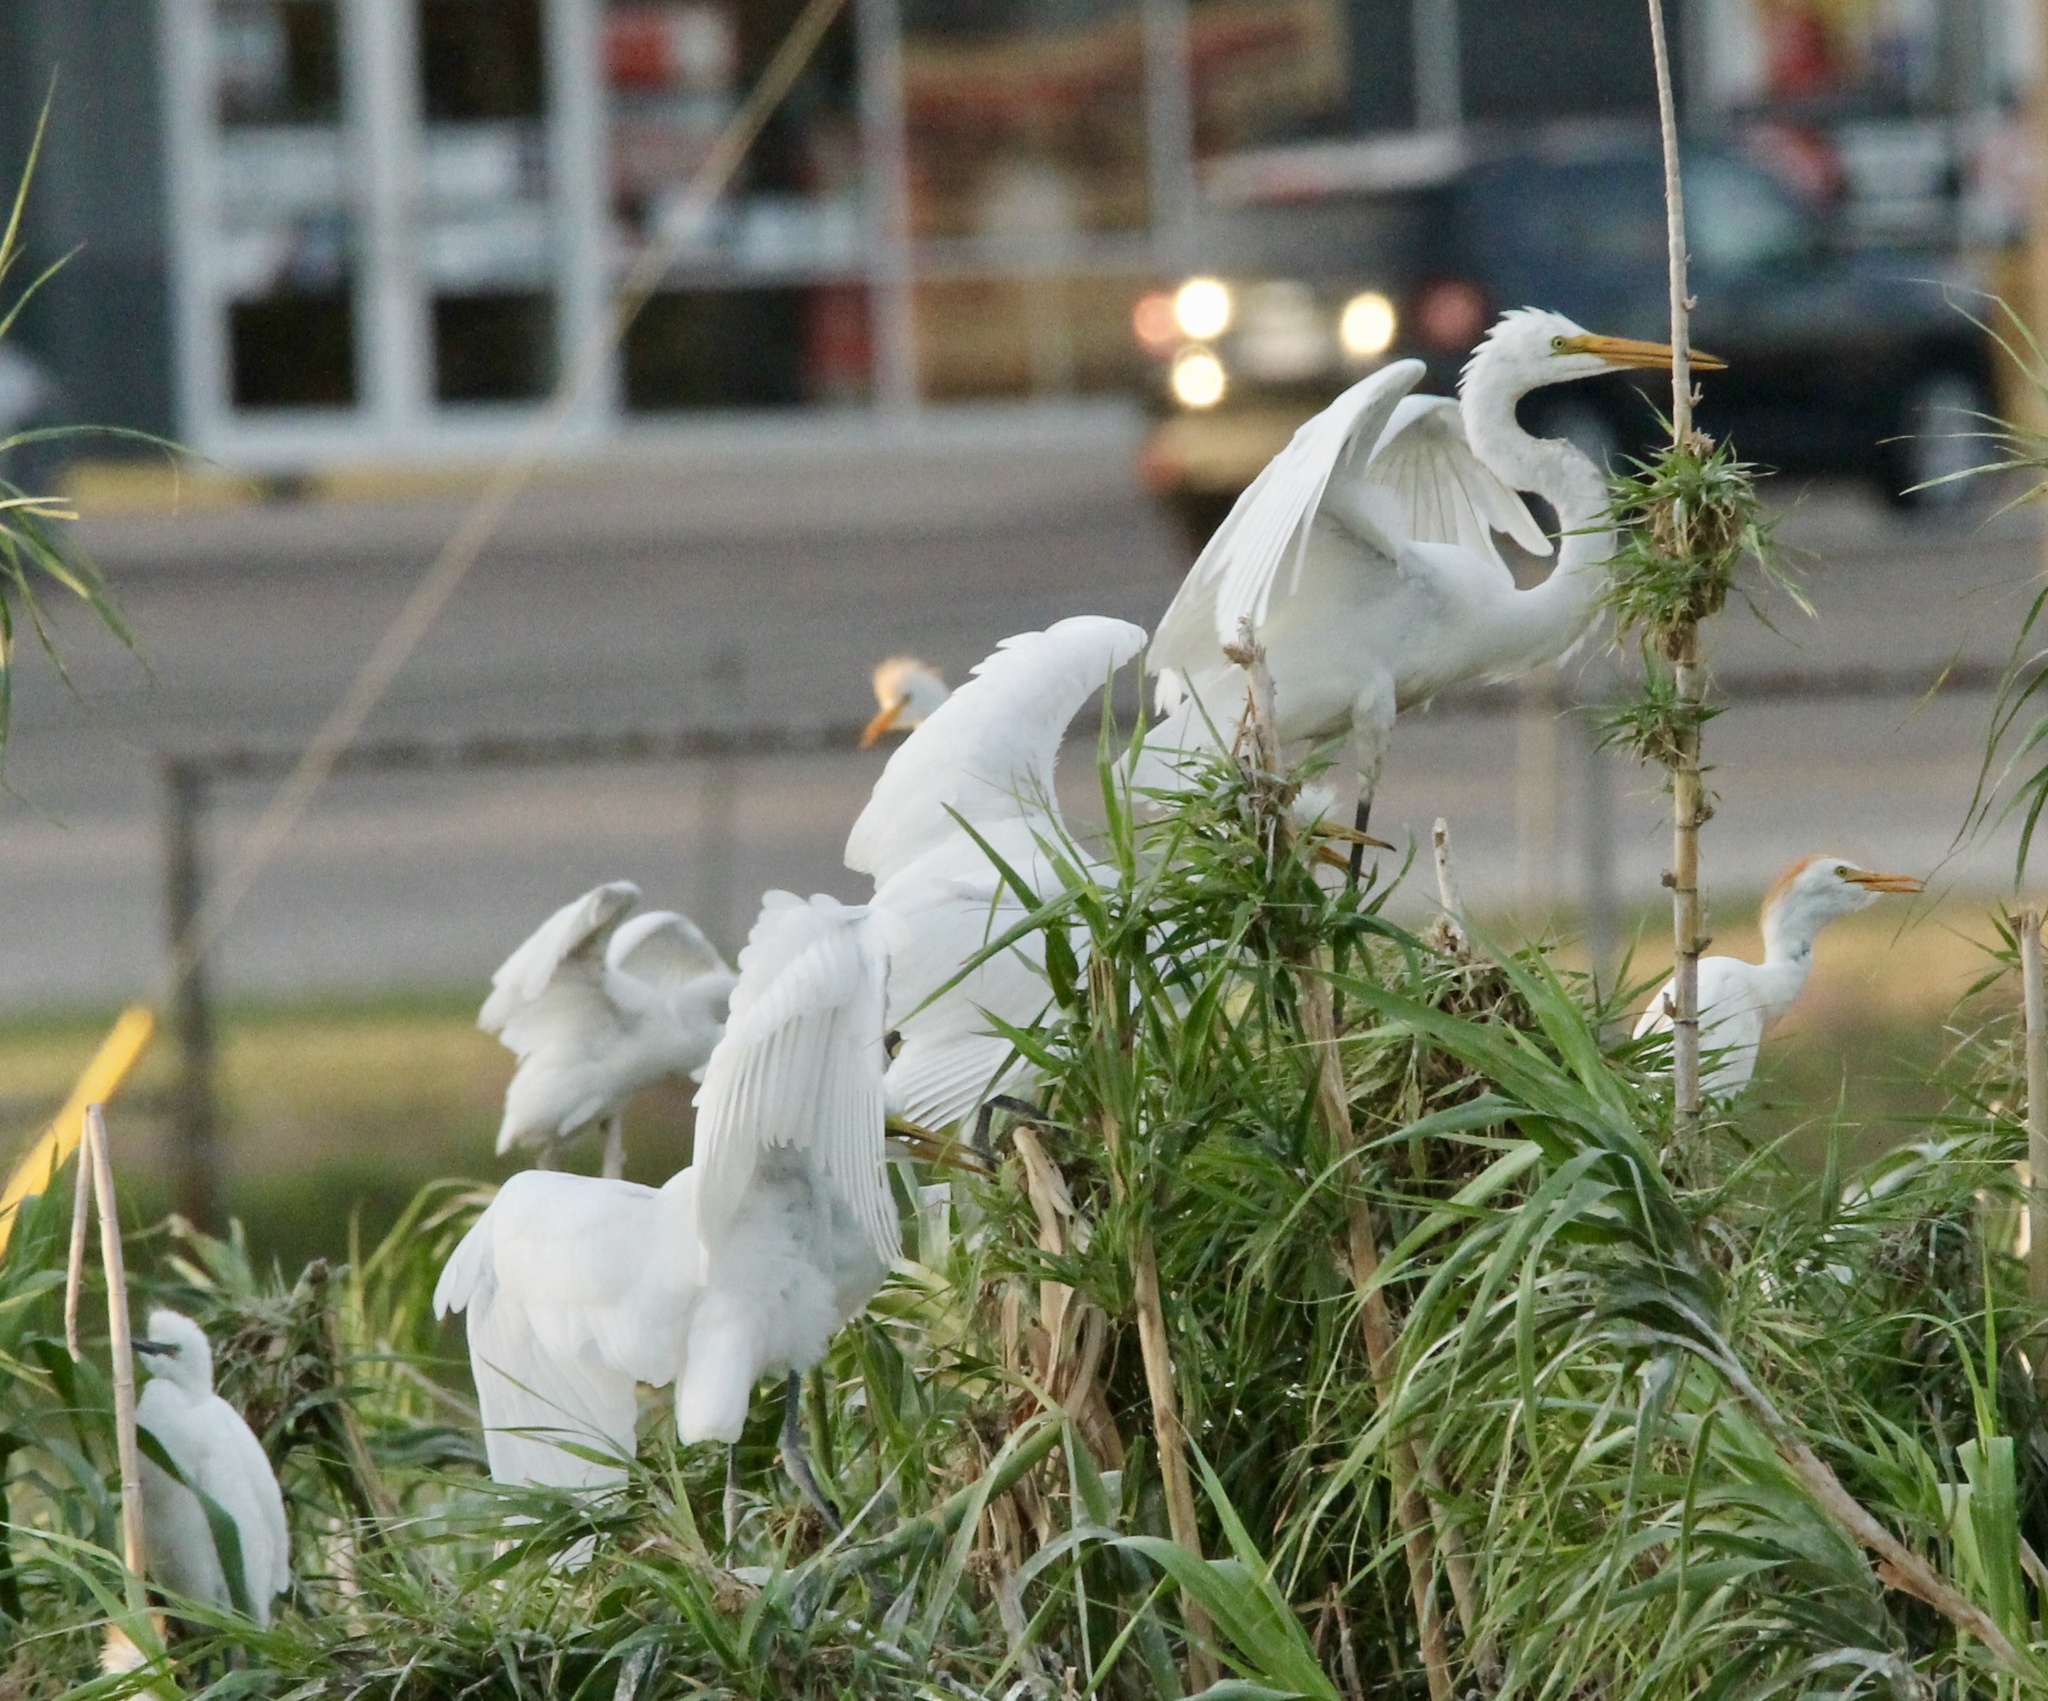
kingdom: Animalia
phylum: Chordata
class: Aves
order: Pelecaniformes
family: Ardeidae
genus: Ardea
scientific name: Ardea alba
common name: Great egret
